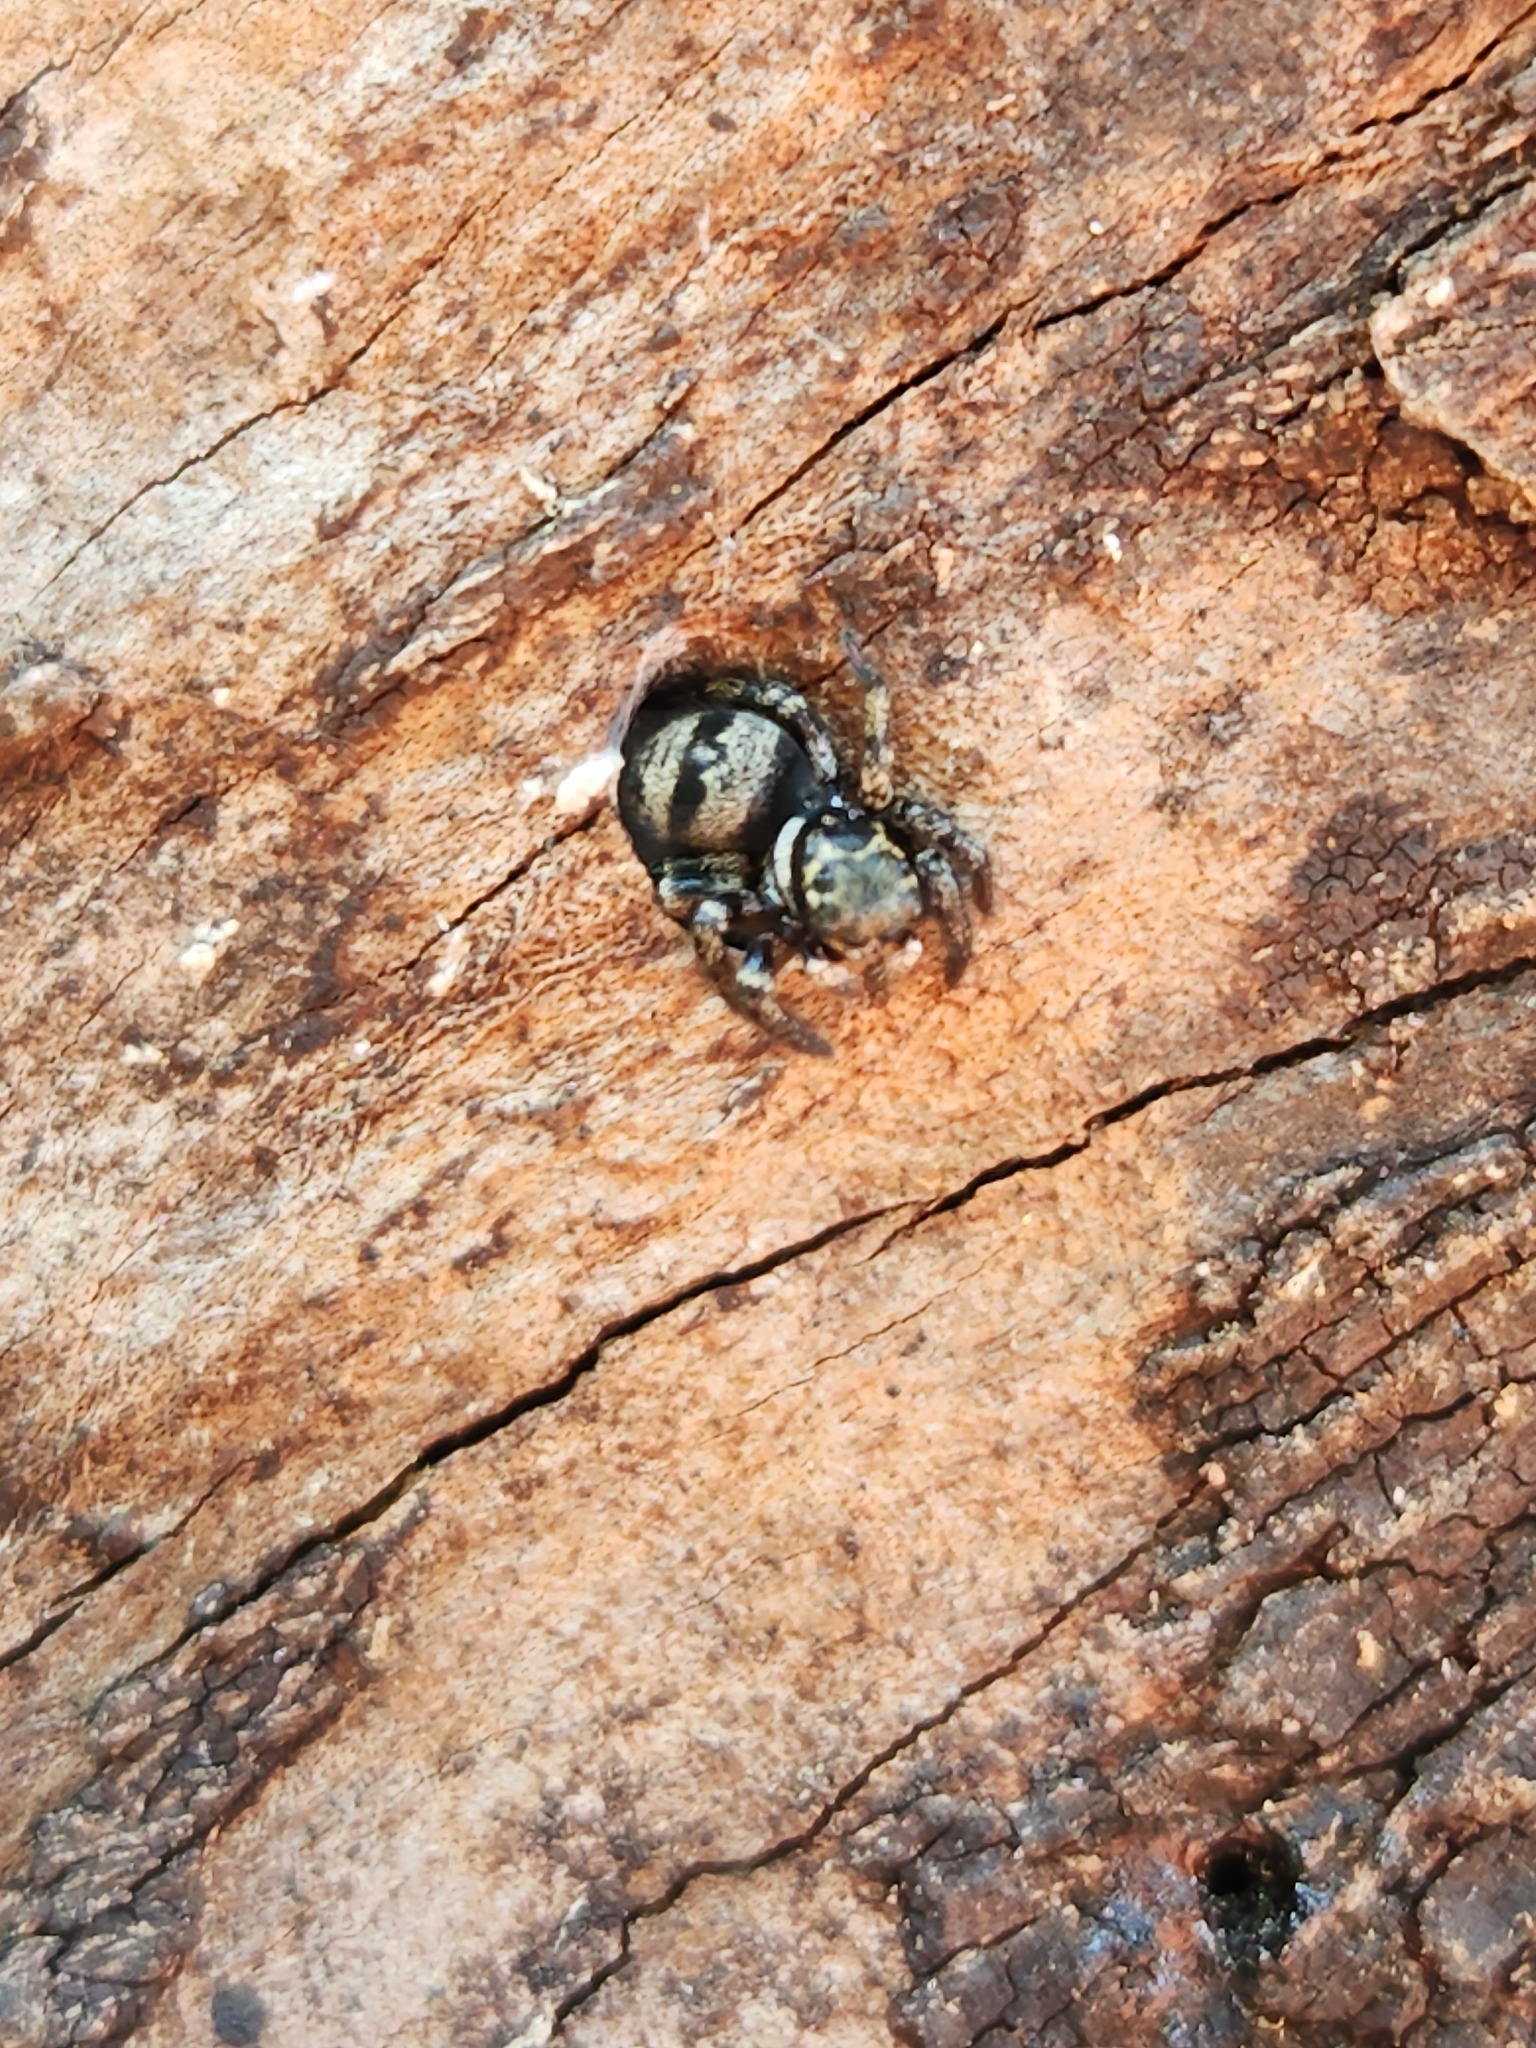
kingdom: Animalia
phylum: Arthropoda
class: Arachnida
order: Araneae
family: Salticidae
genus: Corythalia
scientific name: Corythalia conferta
